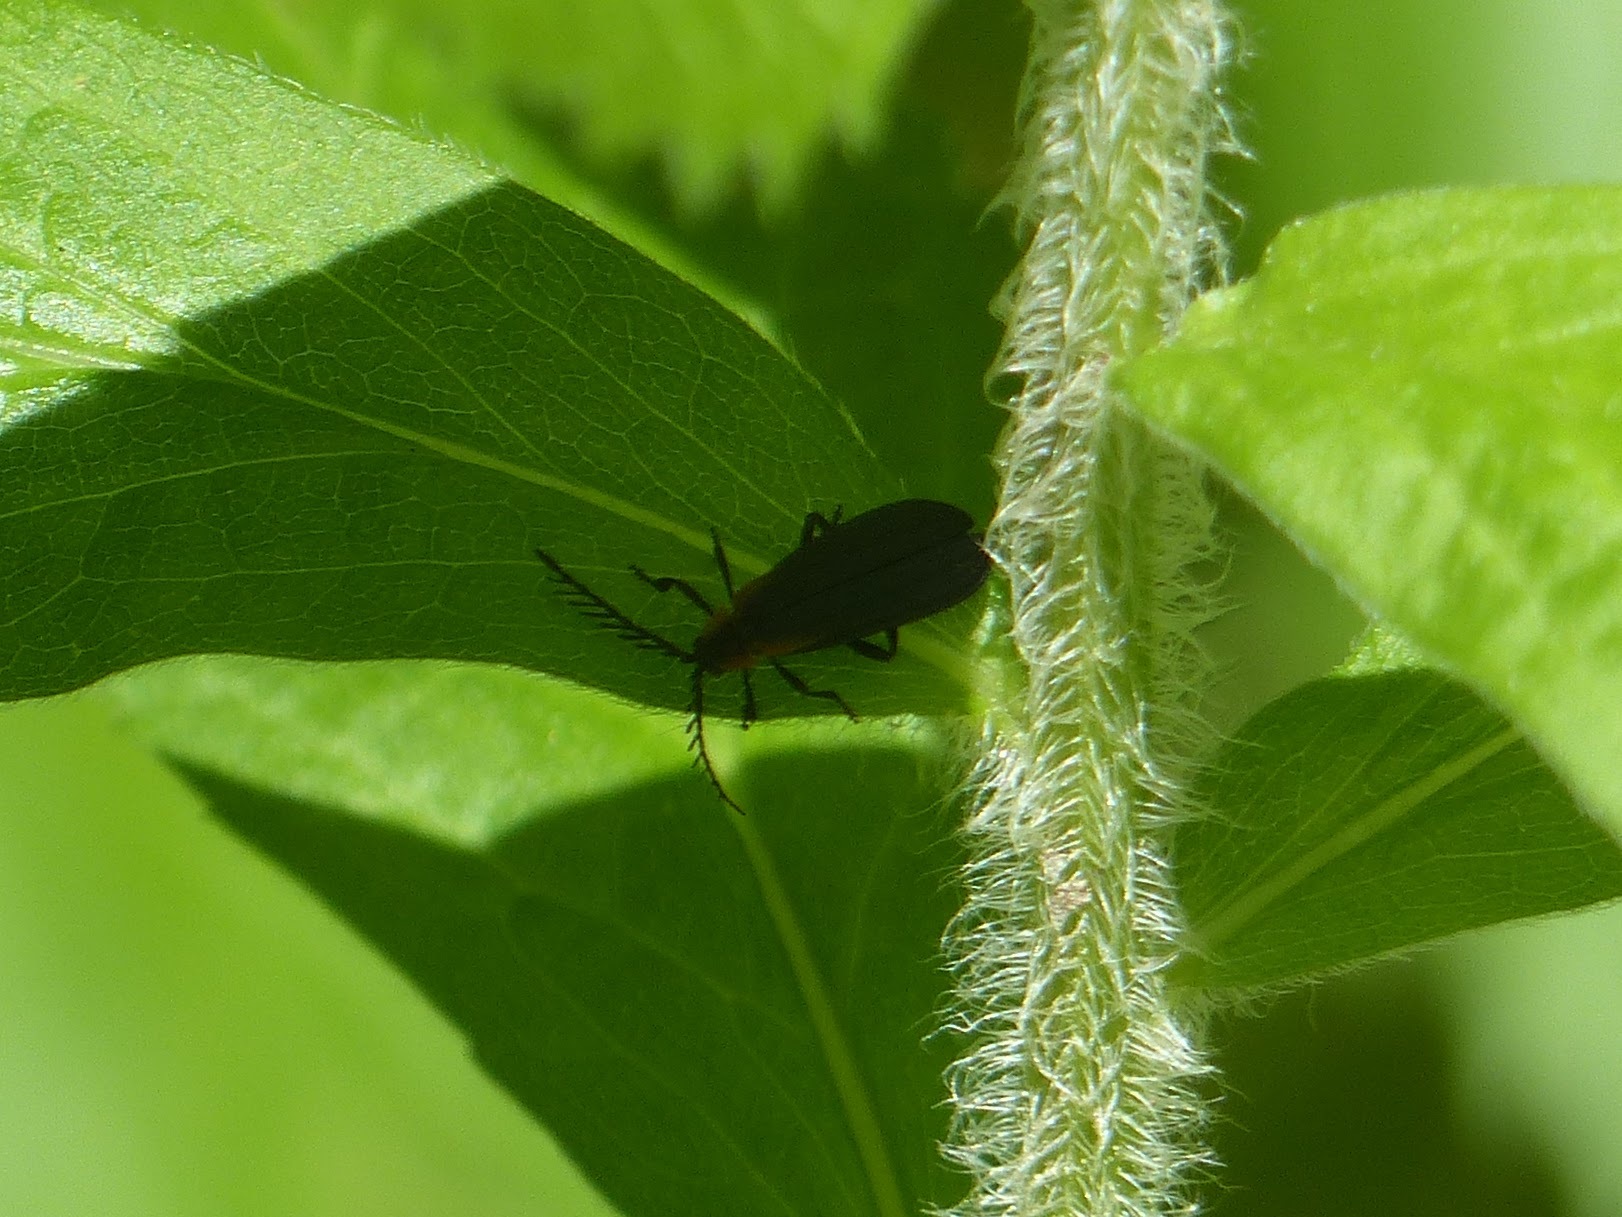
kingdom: Animalia
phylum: Arthropoda
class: Insecta
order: Coleoptera
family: Lycidae
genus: Leptoceletes
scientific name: Leptoceletes basalis
